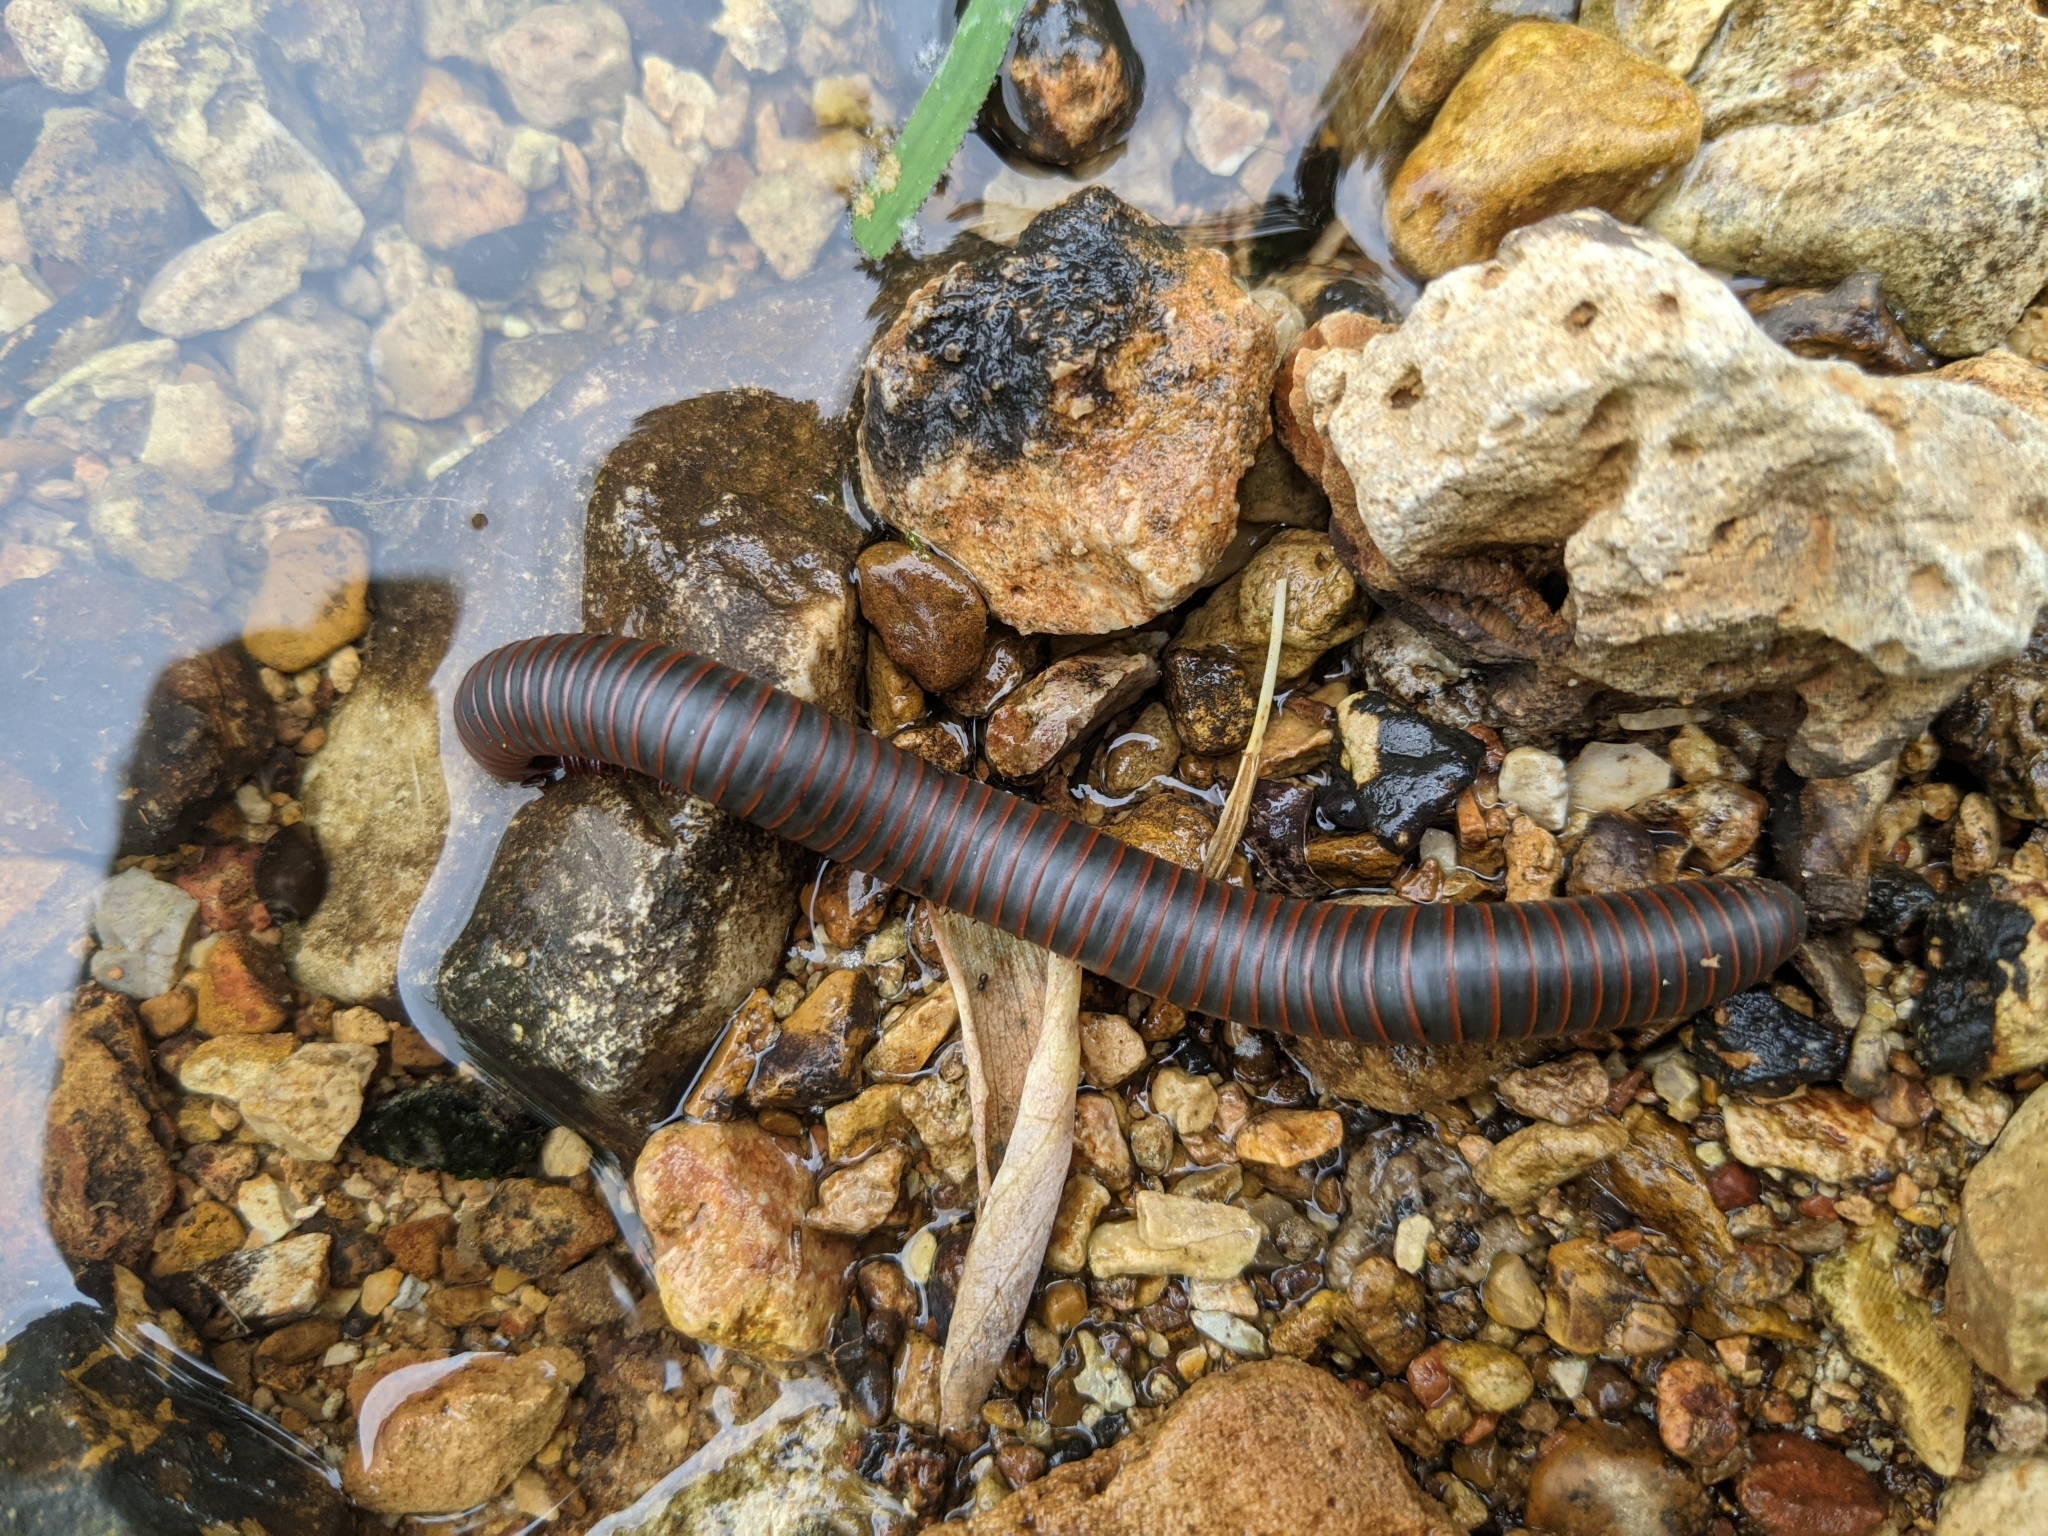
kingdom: Animalia
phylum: Arthropoda
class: Diplopoda
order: Spirobolida
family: Spirobolidae
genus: Narceus
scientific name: Narceus
